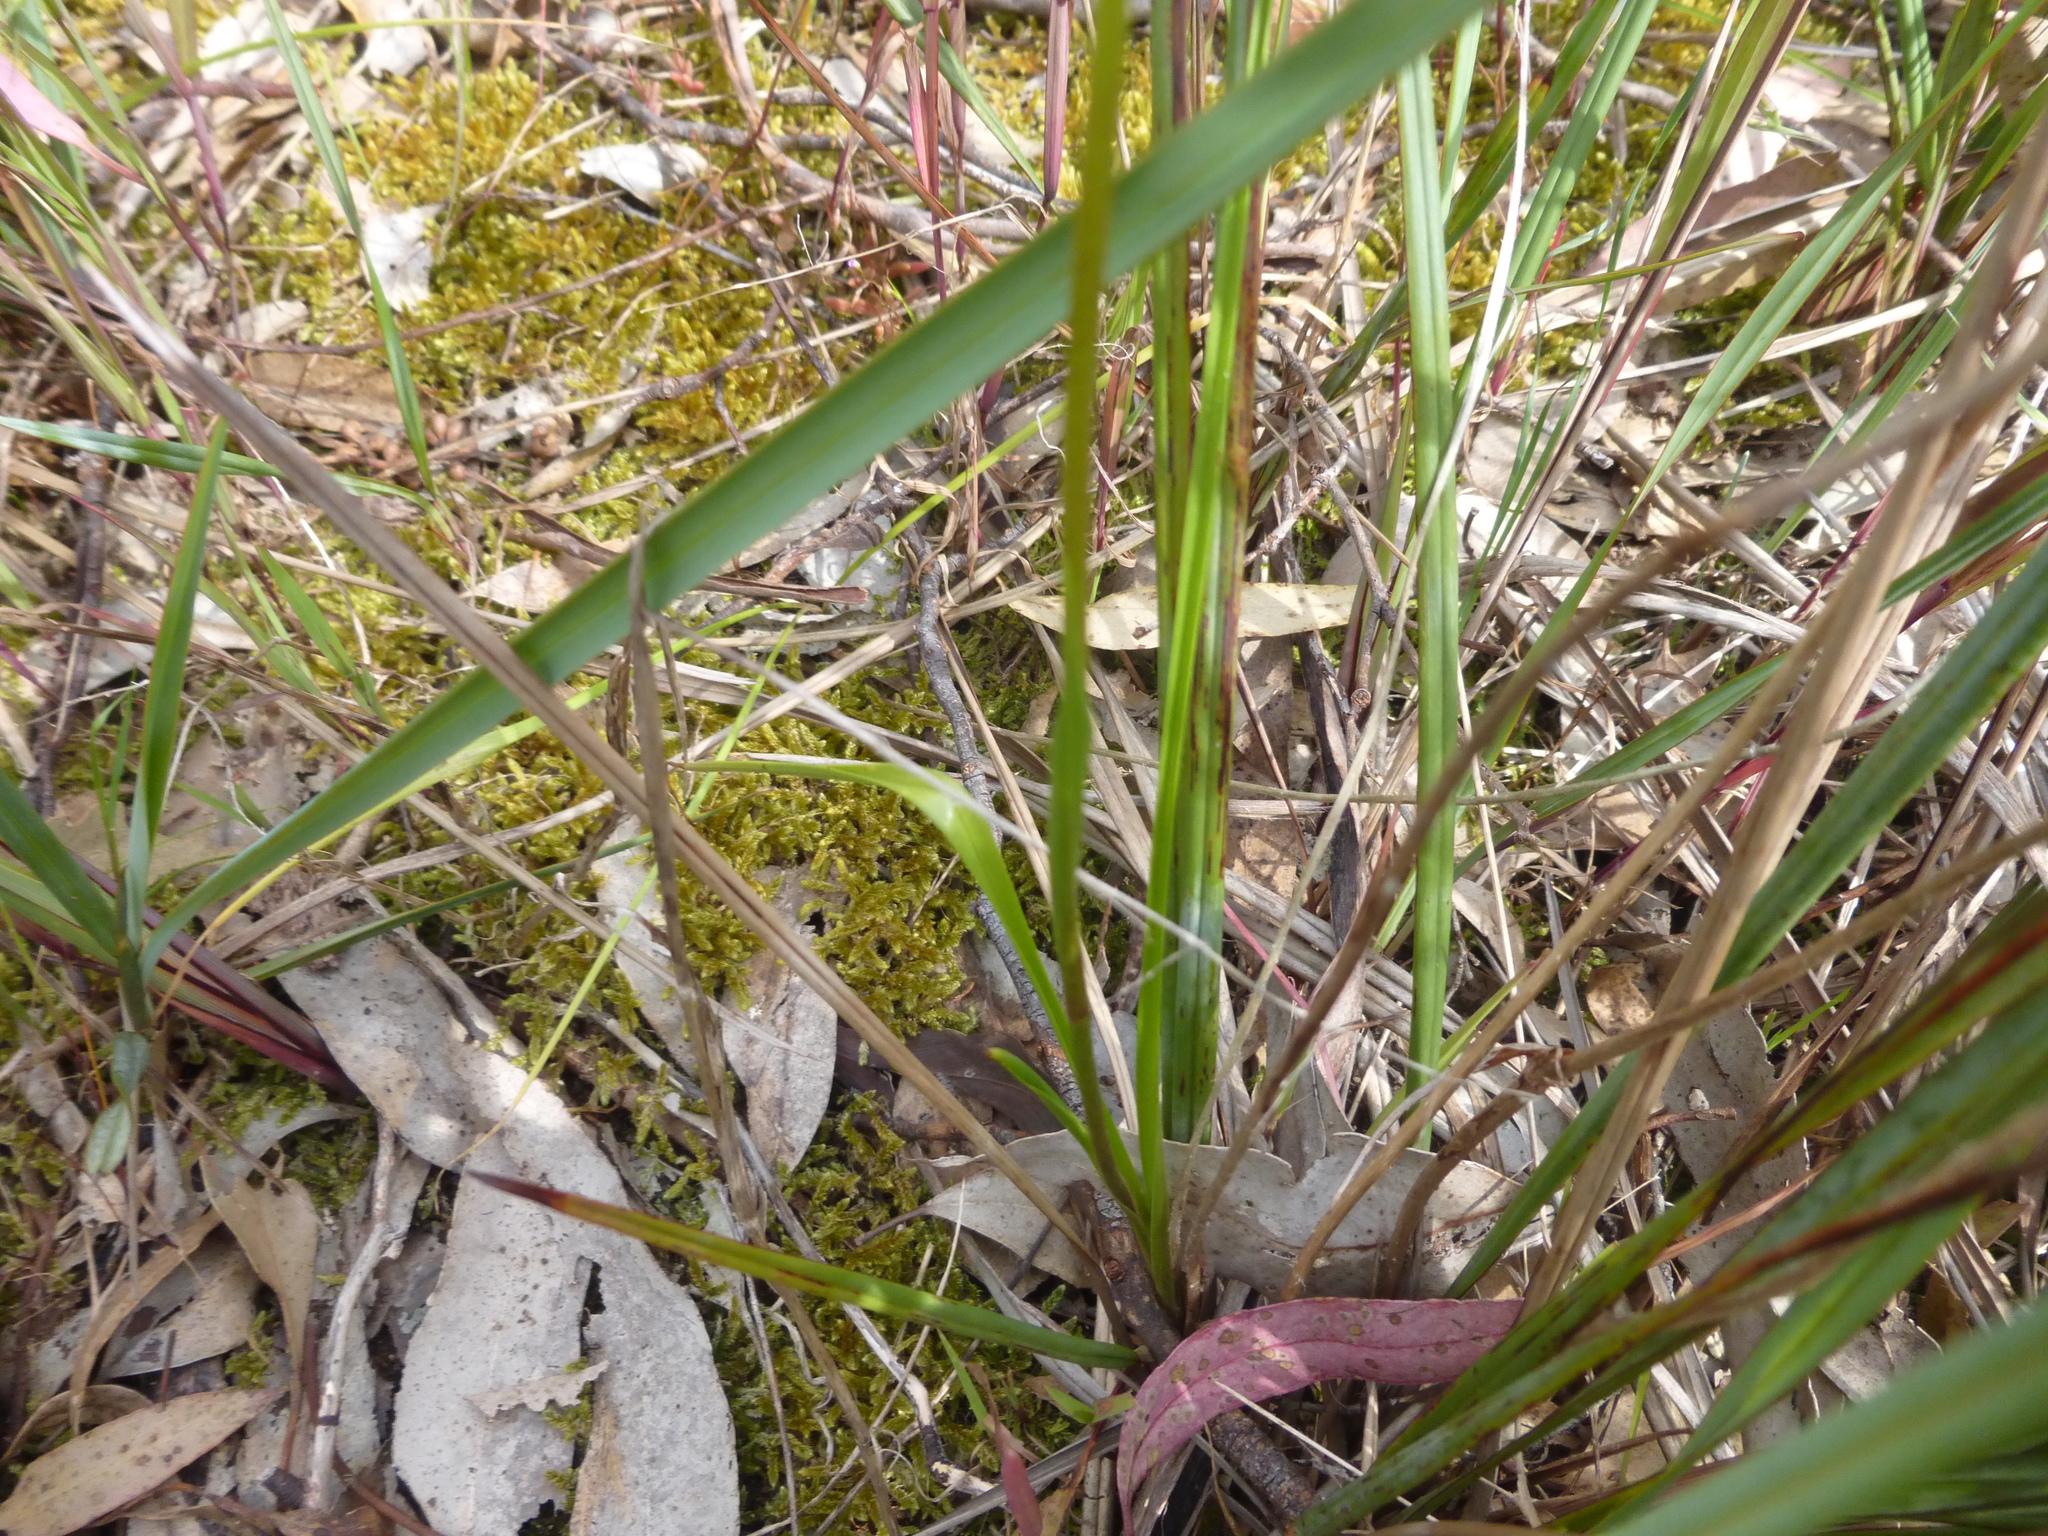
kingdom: Plantae
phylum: Tracheophyta
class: Liliopsida
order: Asparagales
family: Orchidaceae
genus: Diuris
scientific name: Diuris sulphurea
